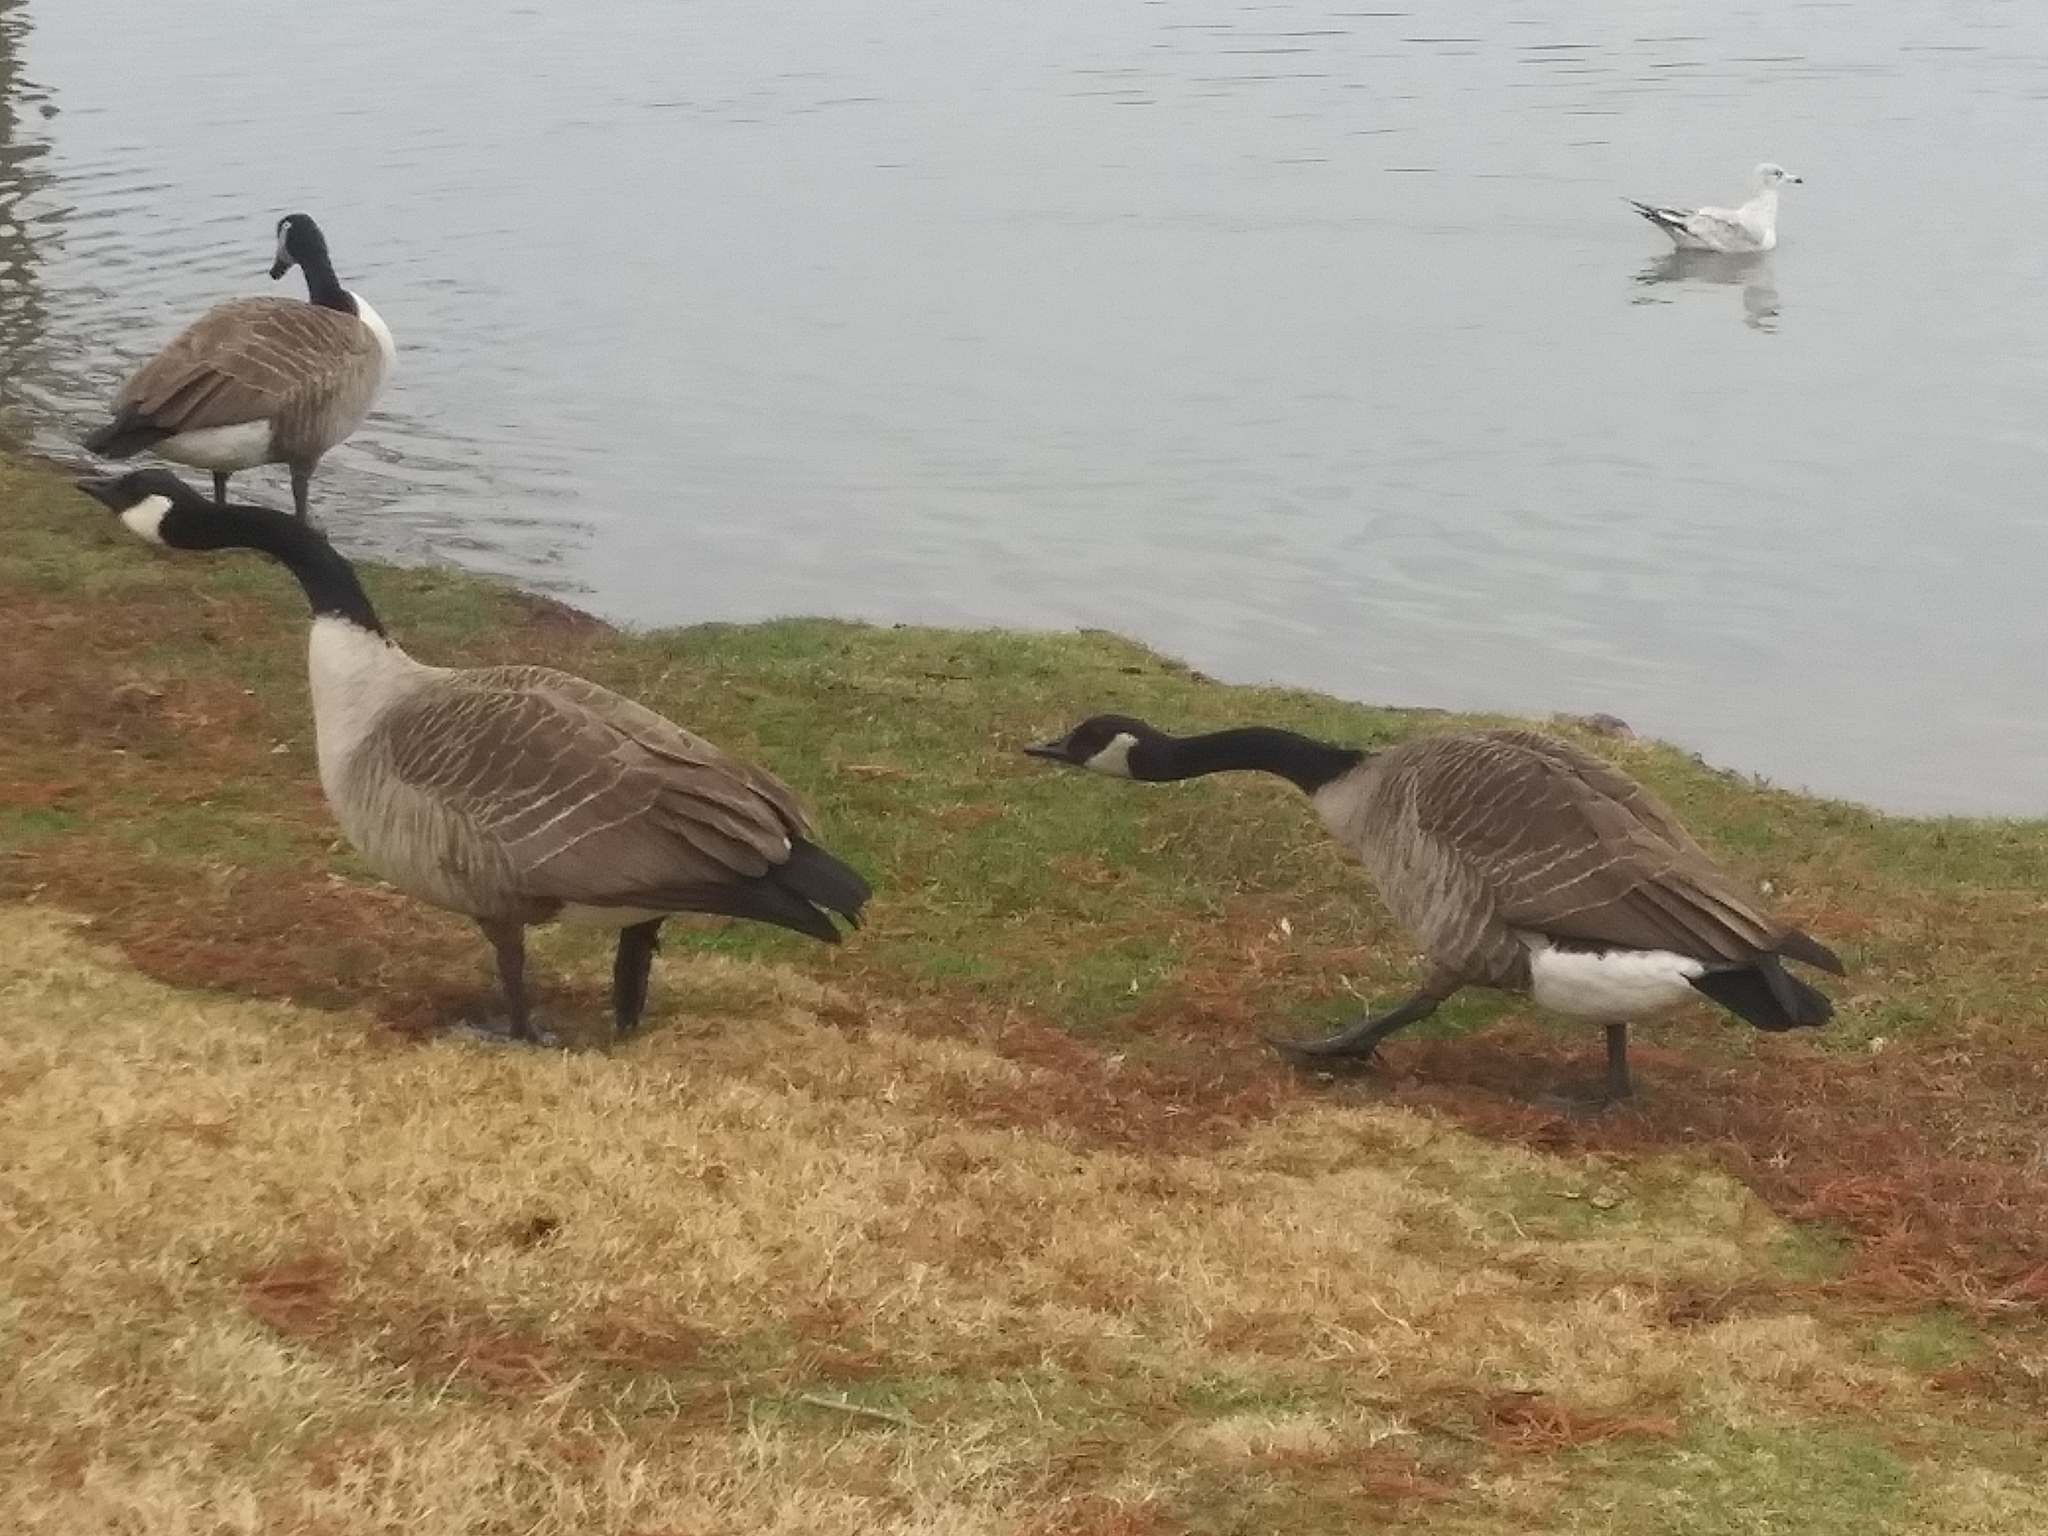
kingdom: Animalia
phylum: Chordata
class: Aves
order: Anseriformes
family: Anatidae
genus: Branta
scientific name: Branta canadensis
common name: Canada goose
